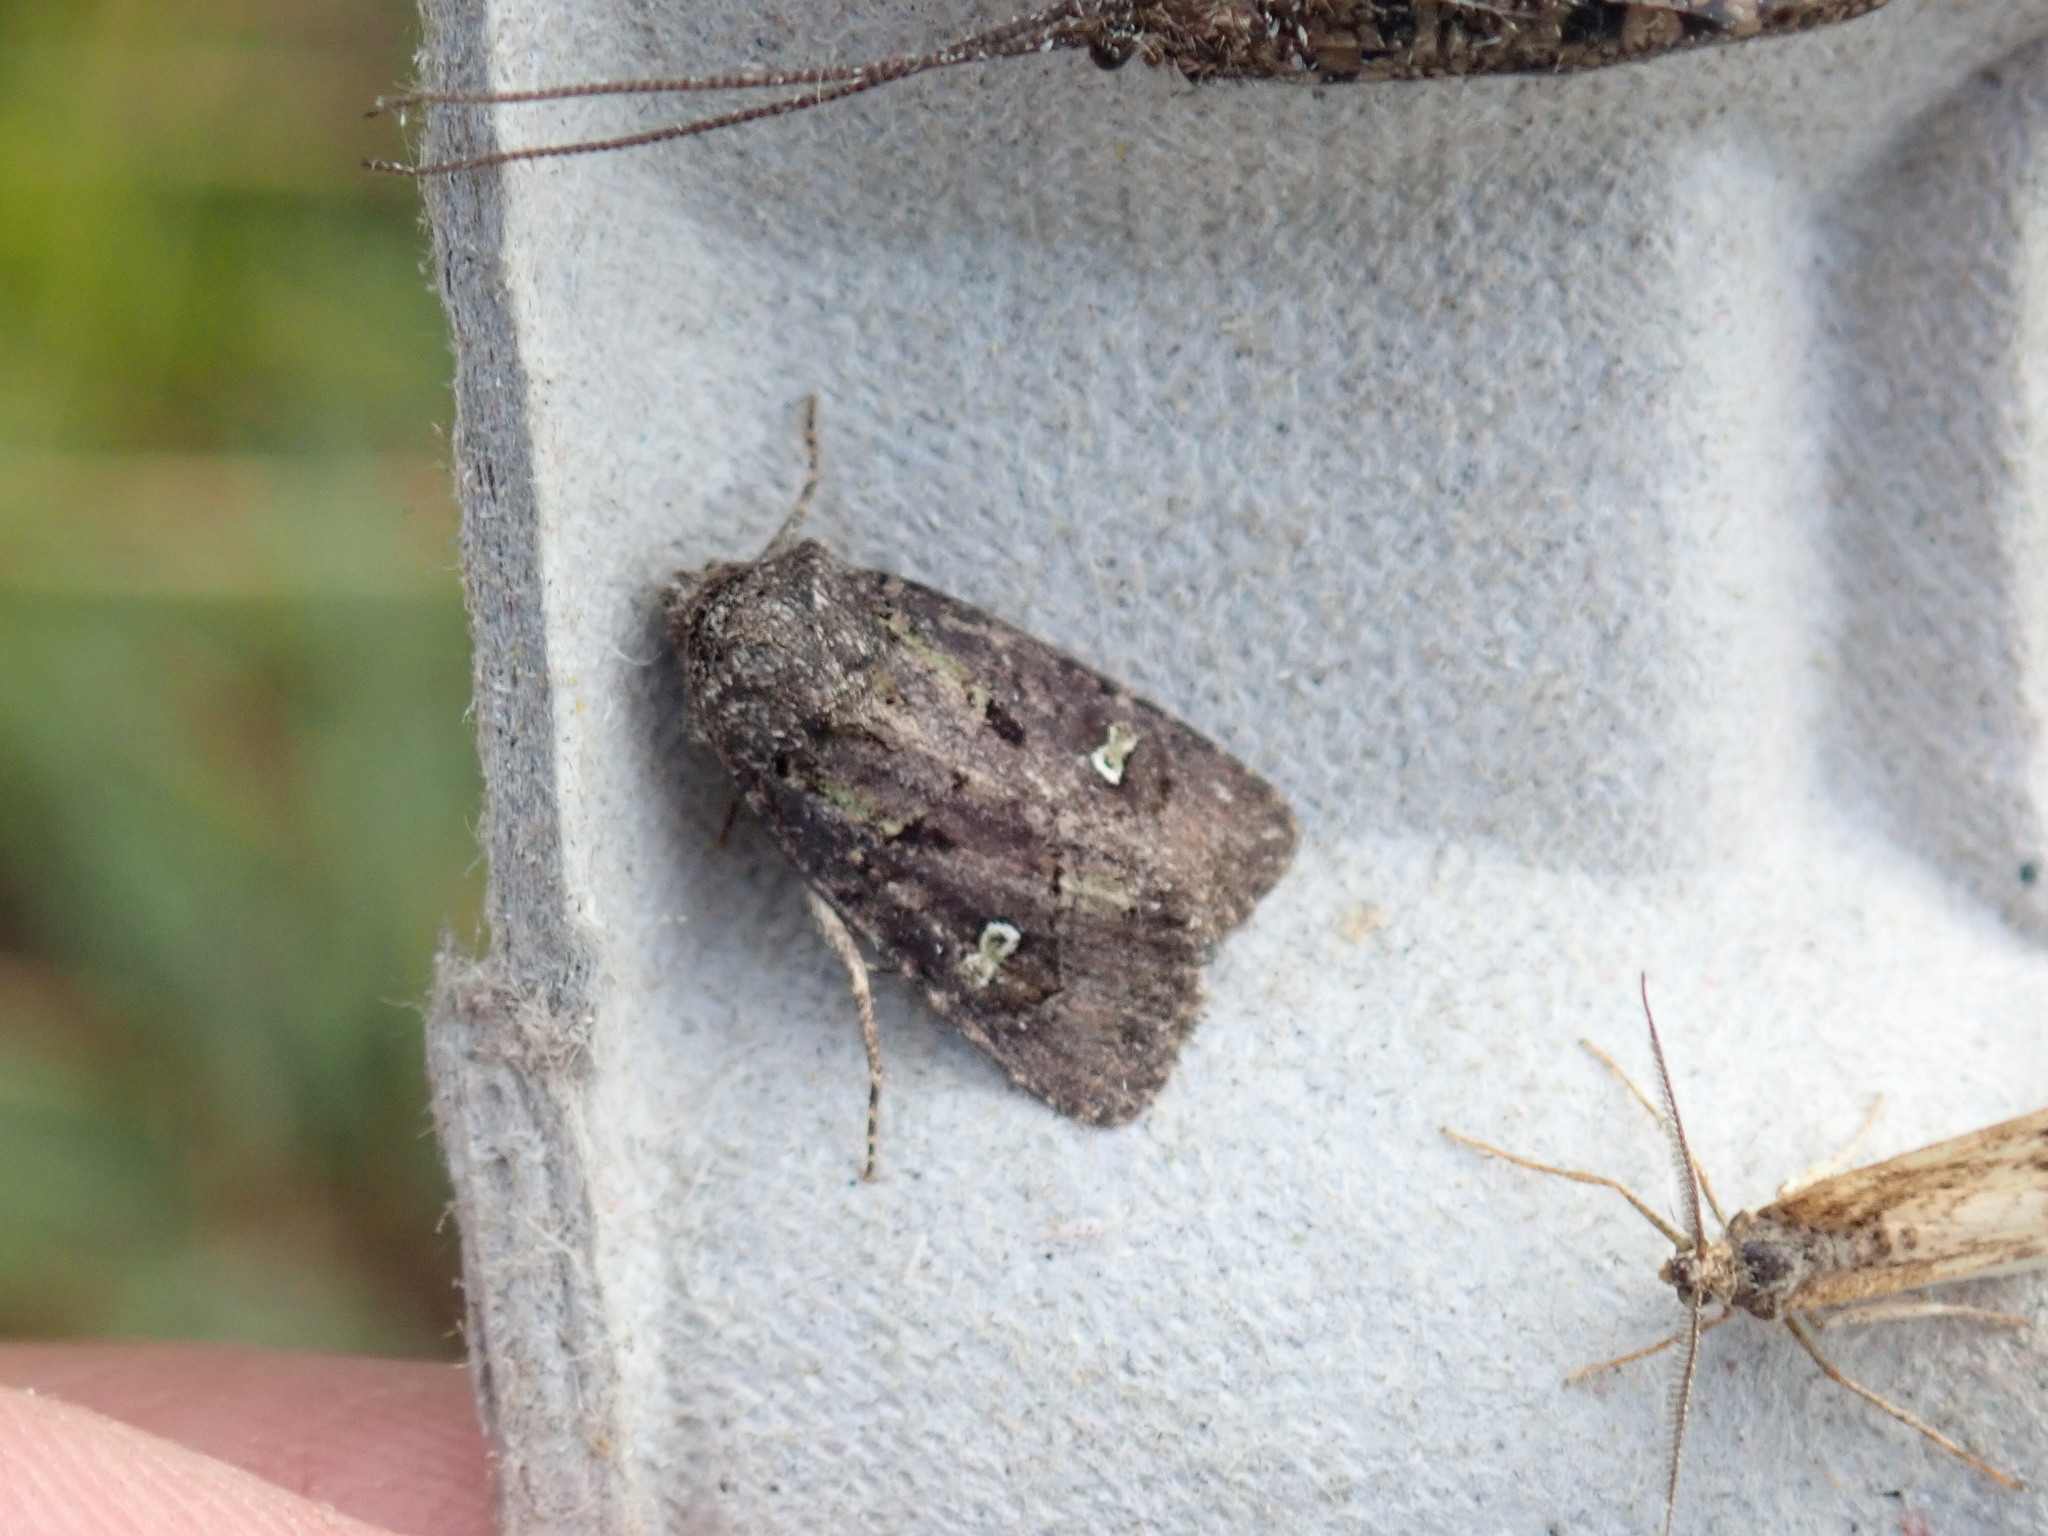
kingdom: Animalia
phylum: Arthropoda
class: Insecta
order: Lepidoptera
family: Noctuidae
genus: Lacinipolia
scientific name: Lacinipolia renigera
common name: Kidney-spotted minor
